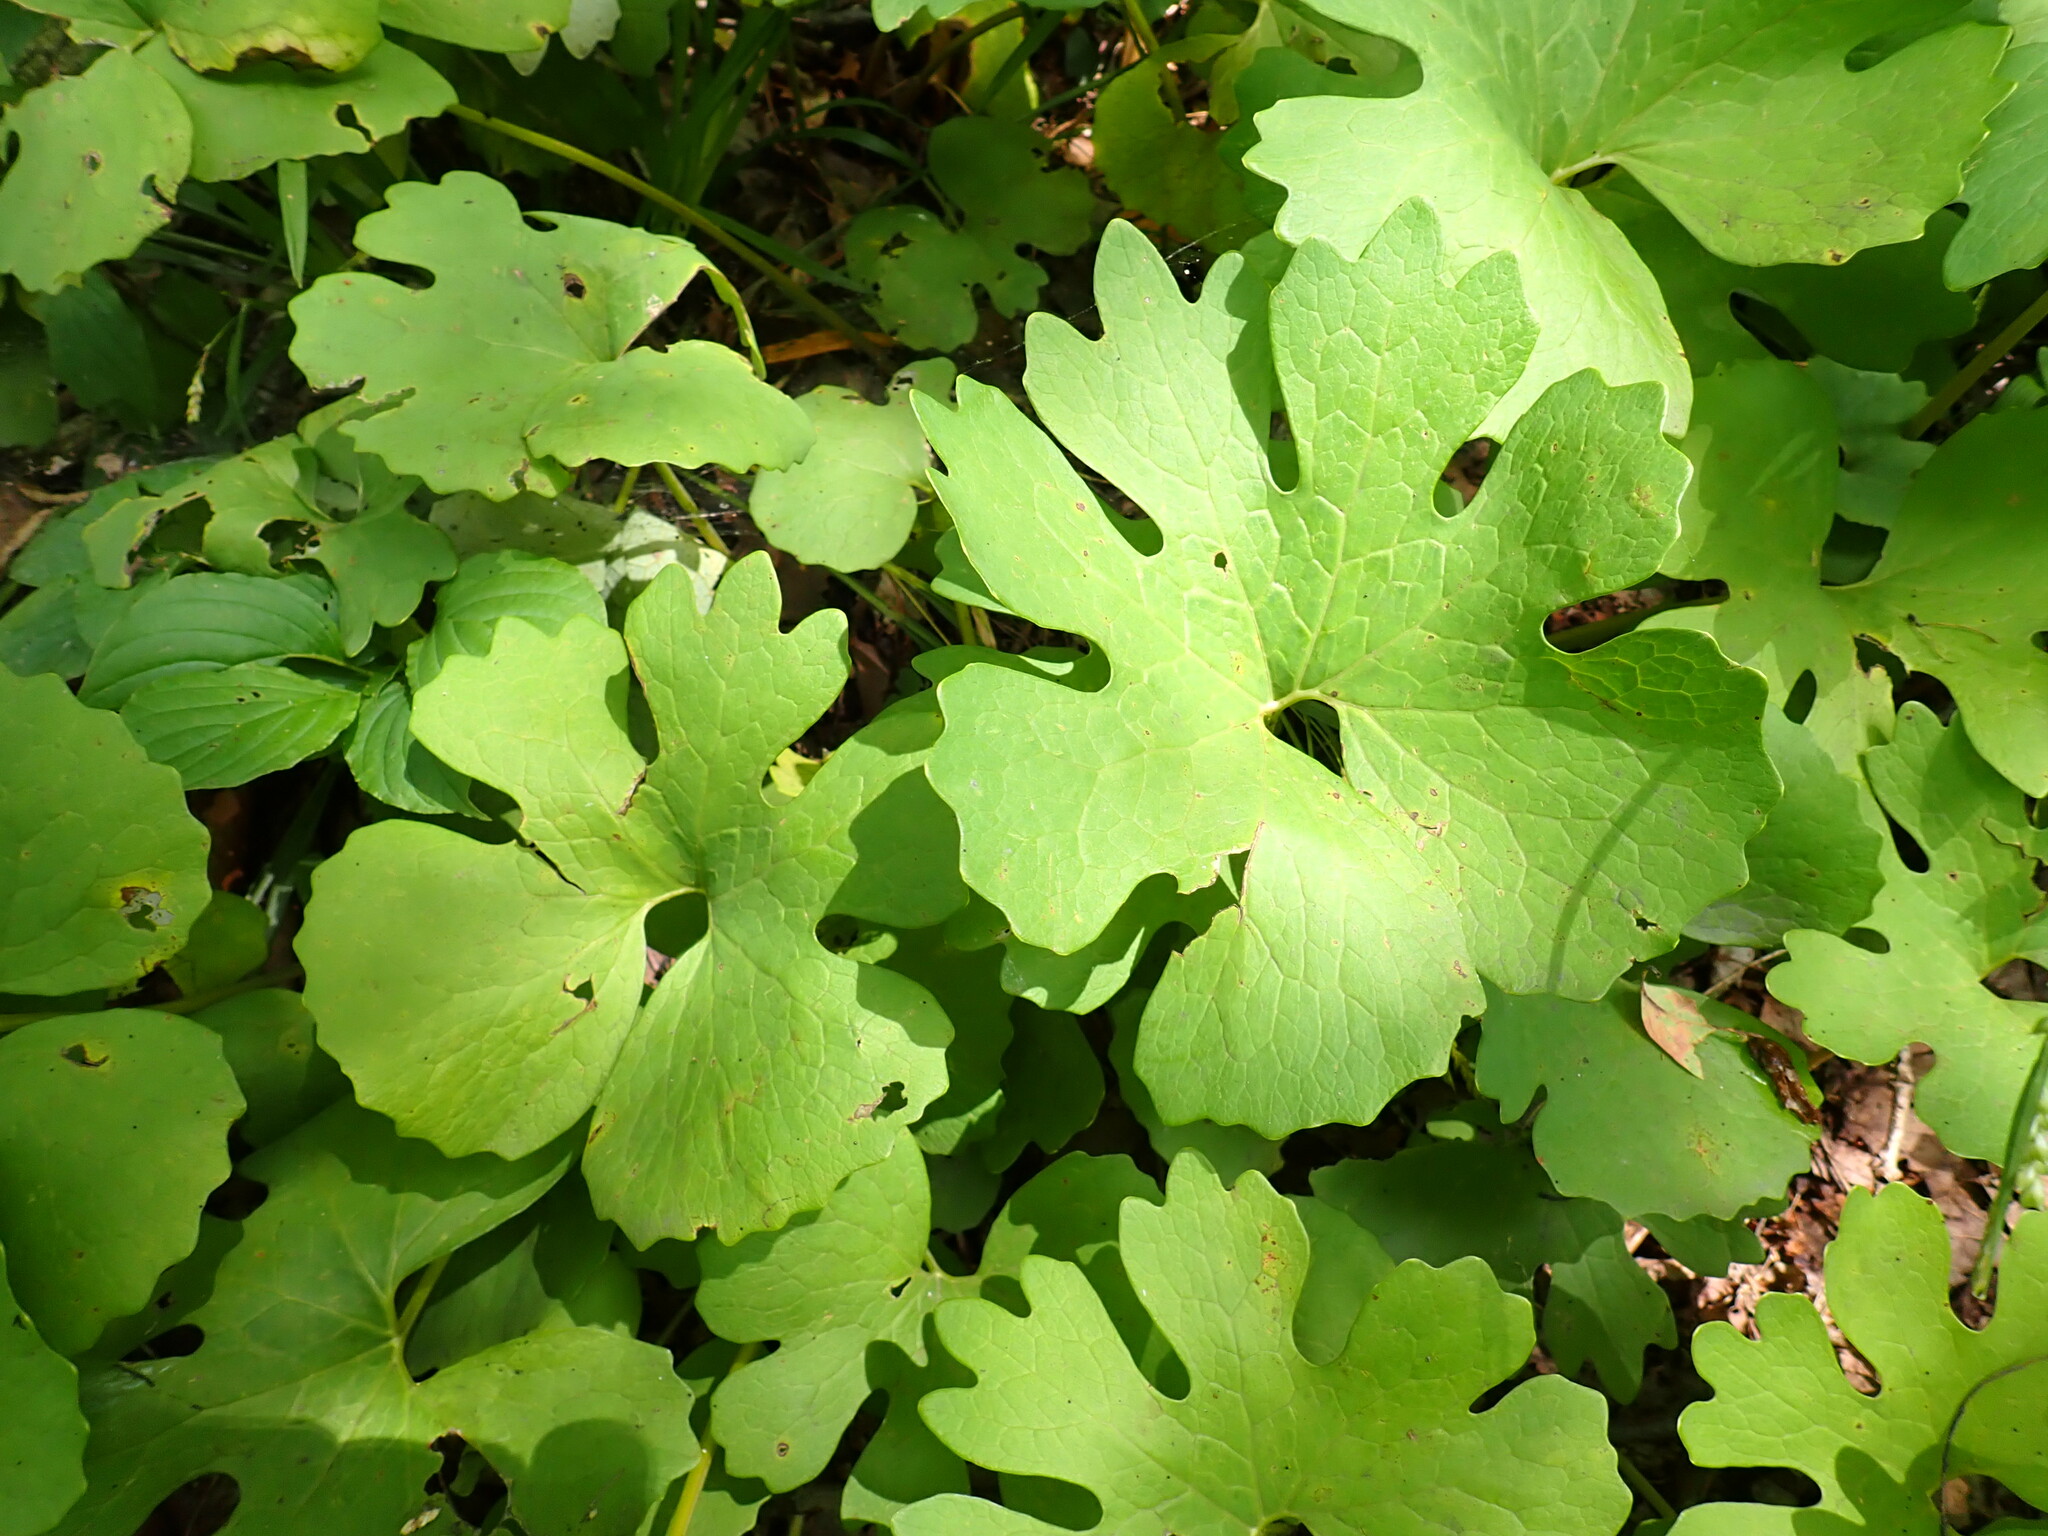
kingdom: Plantae
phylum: Tracheophyta
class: Magnoliopsida
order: Ranunculales
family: Papaveraceae
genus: Sanguinaria
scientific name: Sanguinaria canadensis
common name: Bloodroot
